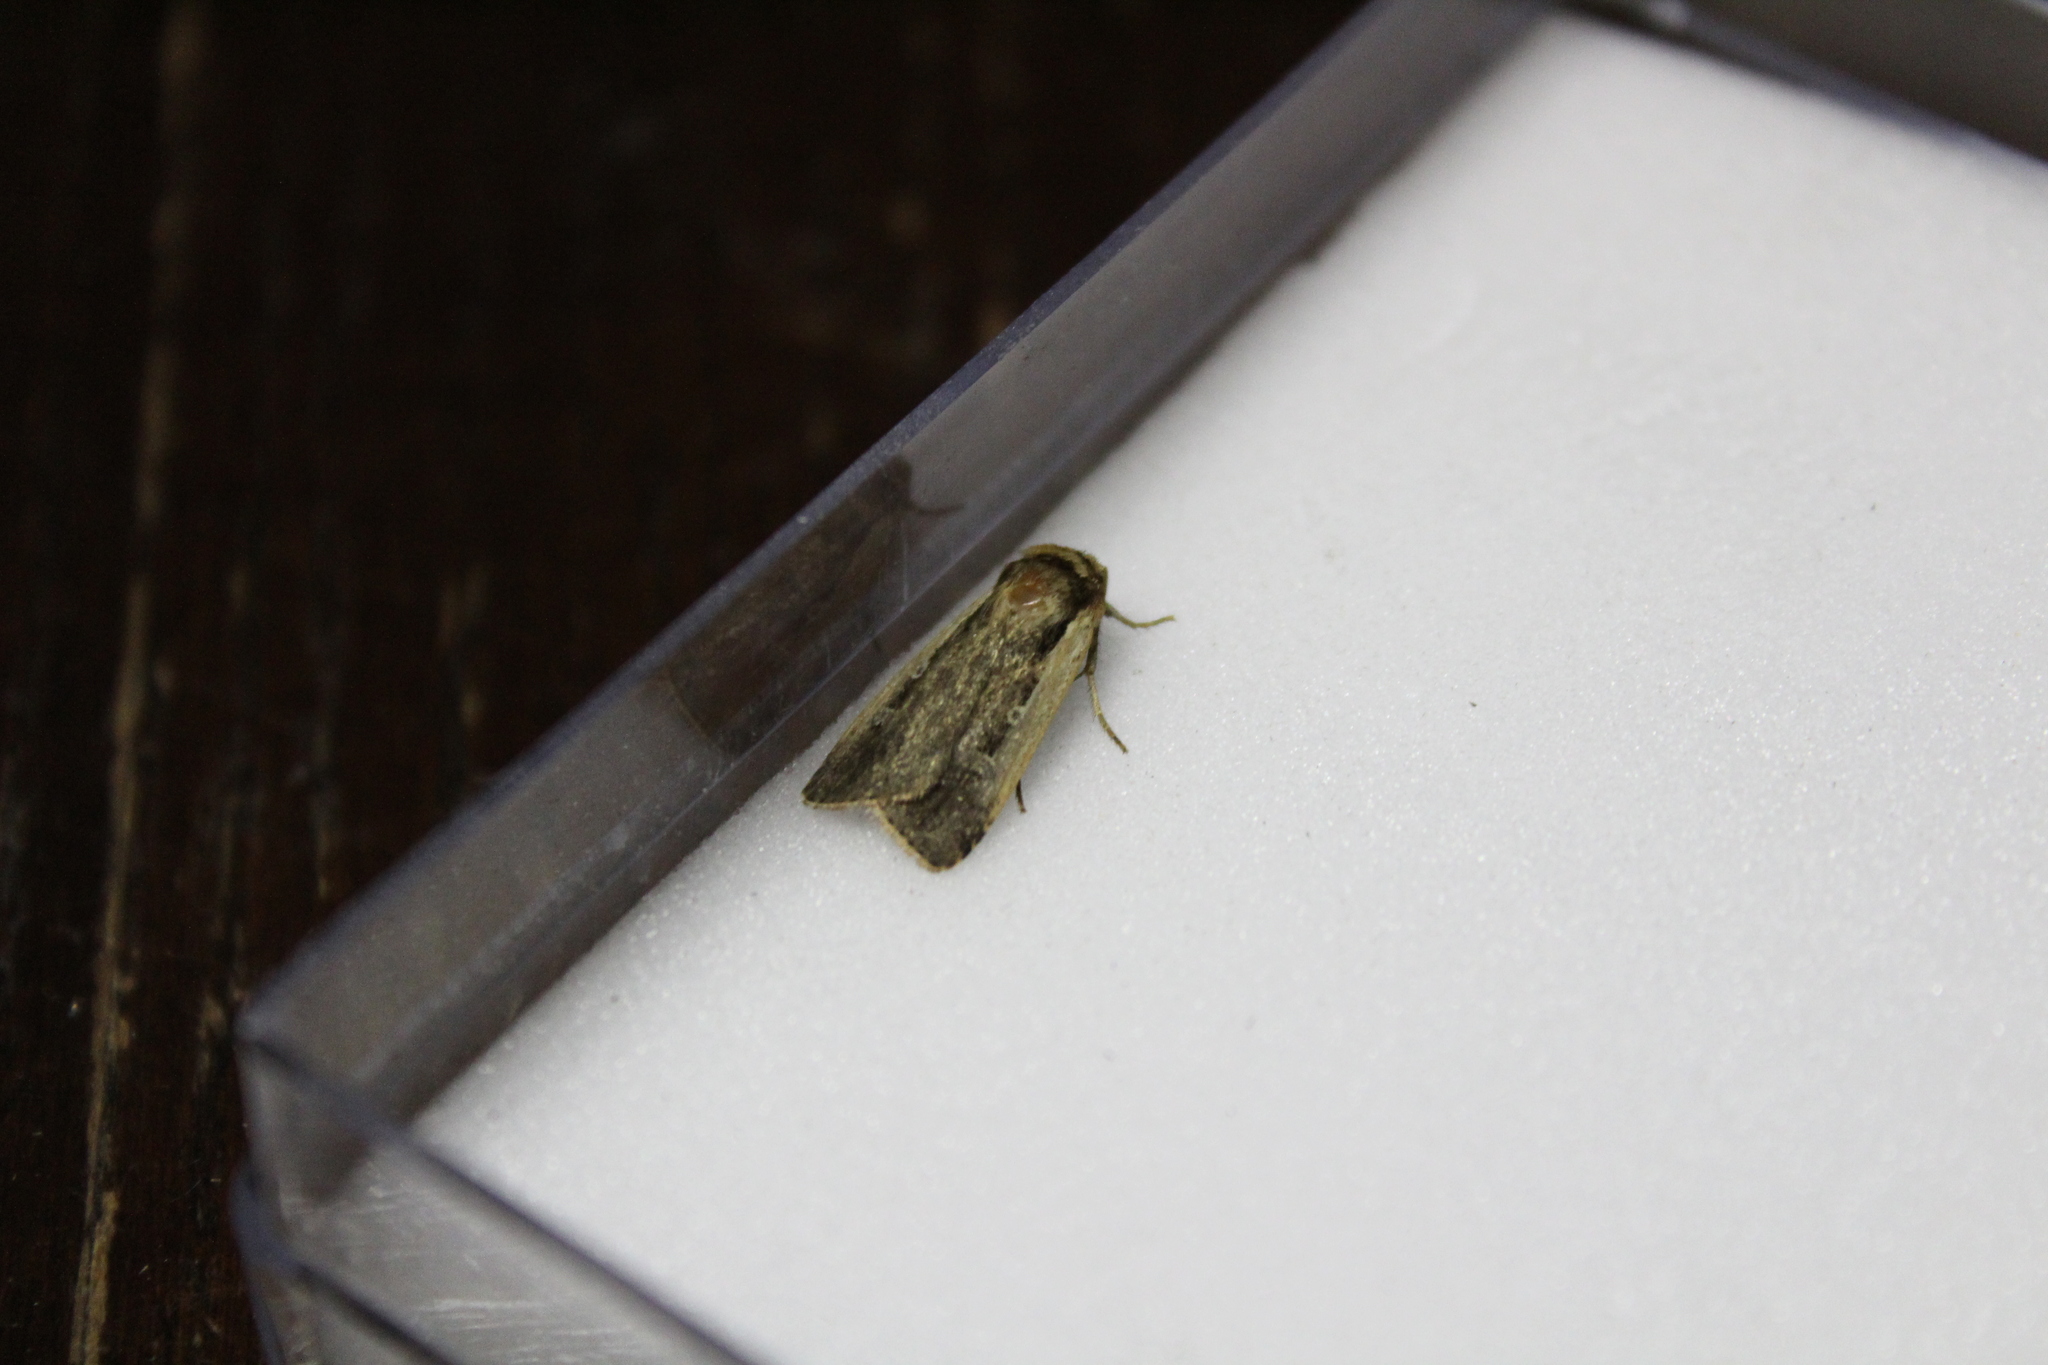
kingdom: Animalia
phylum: Arthropoda
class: Insecta
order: Lepidoptera
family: Noctuidae
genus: Ochropleura
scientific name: Ochropleura plecta
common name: Flame shoulder
